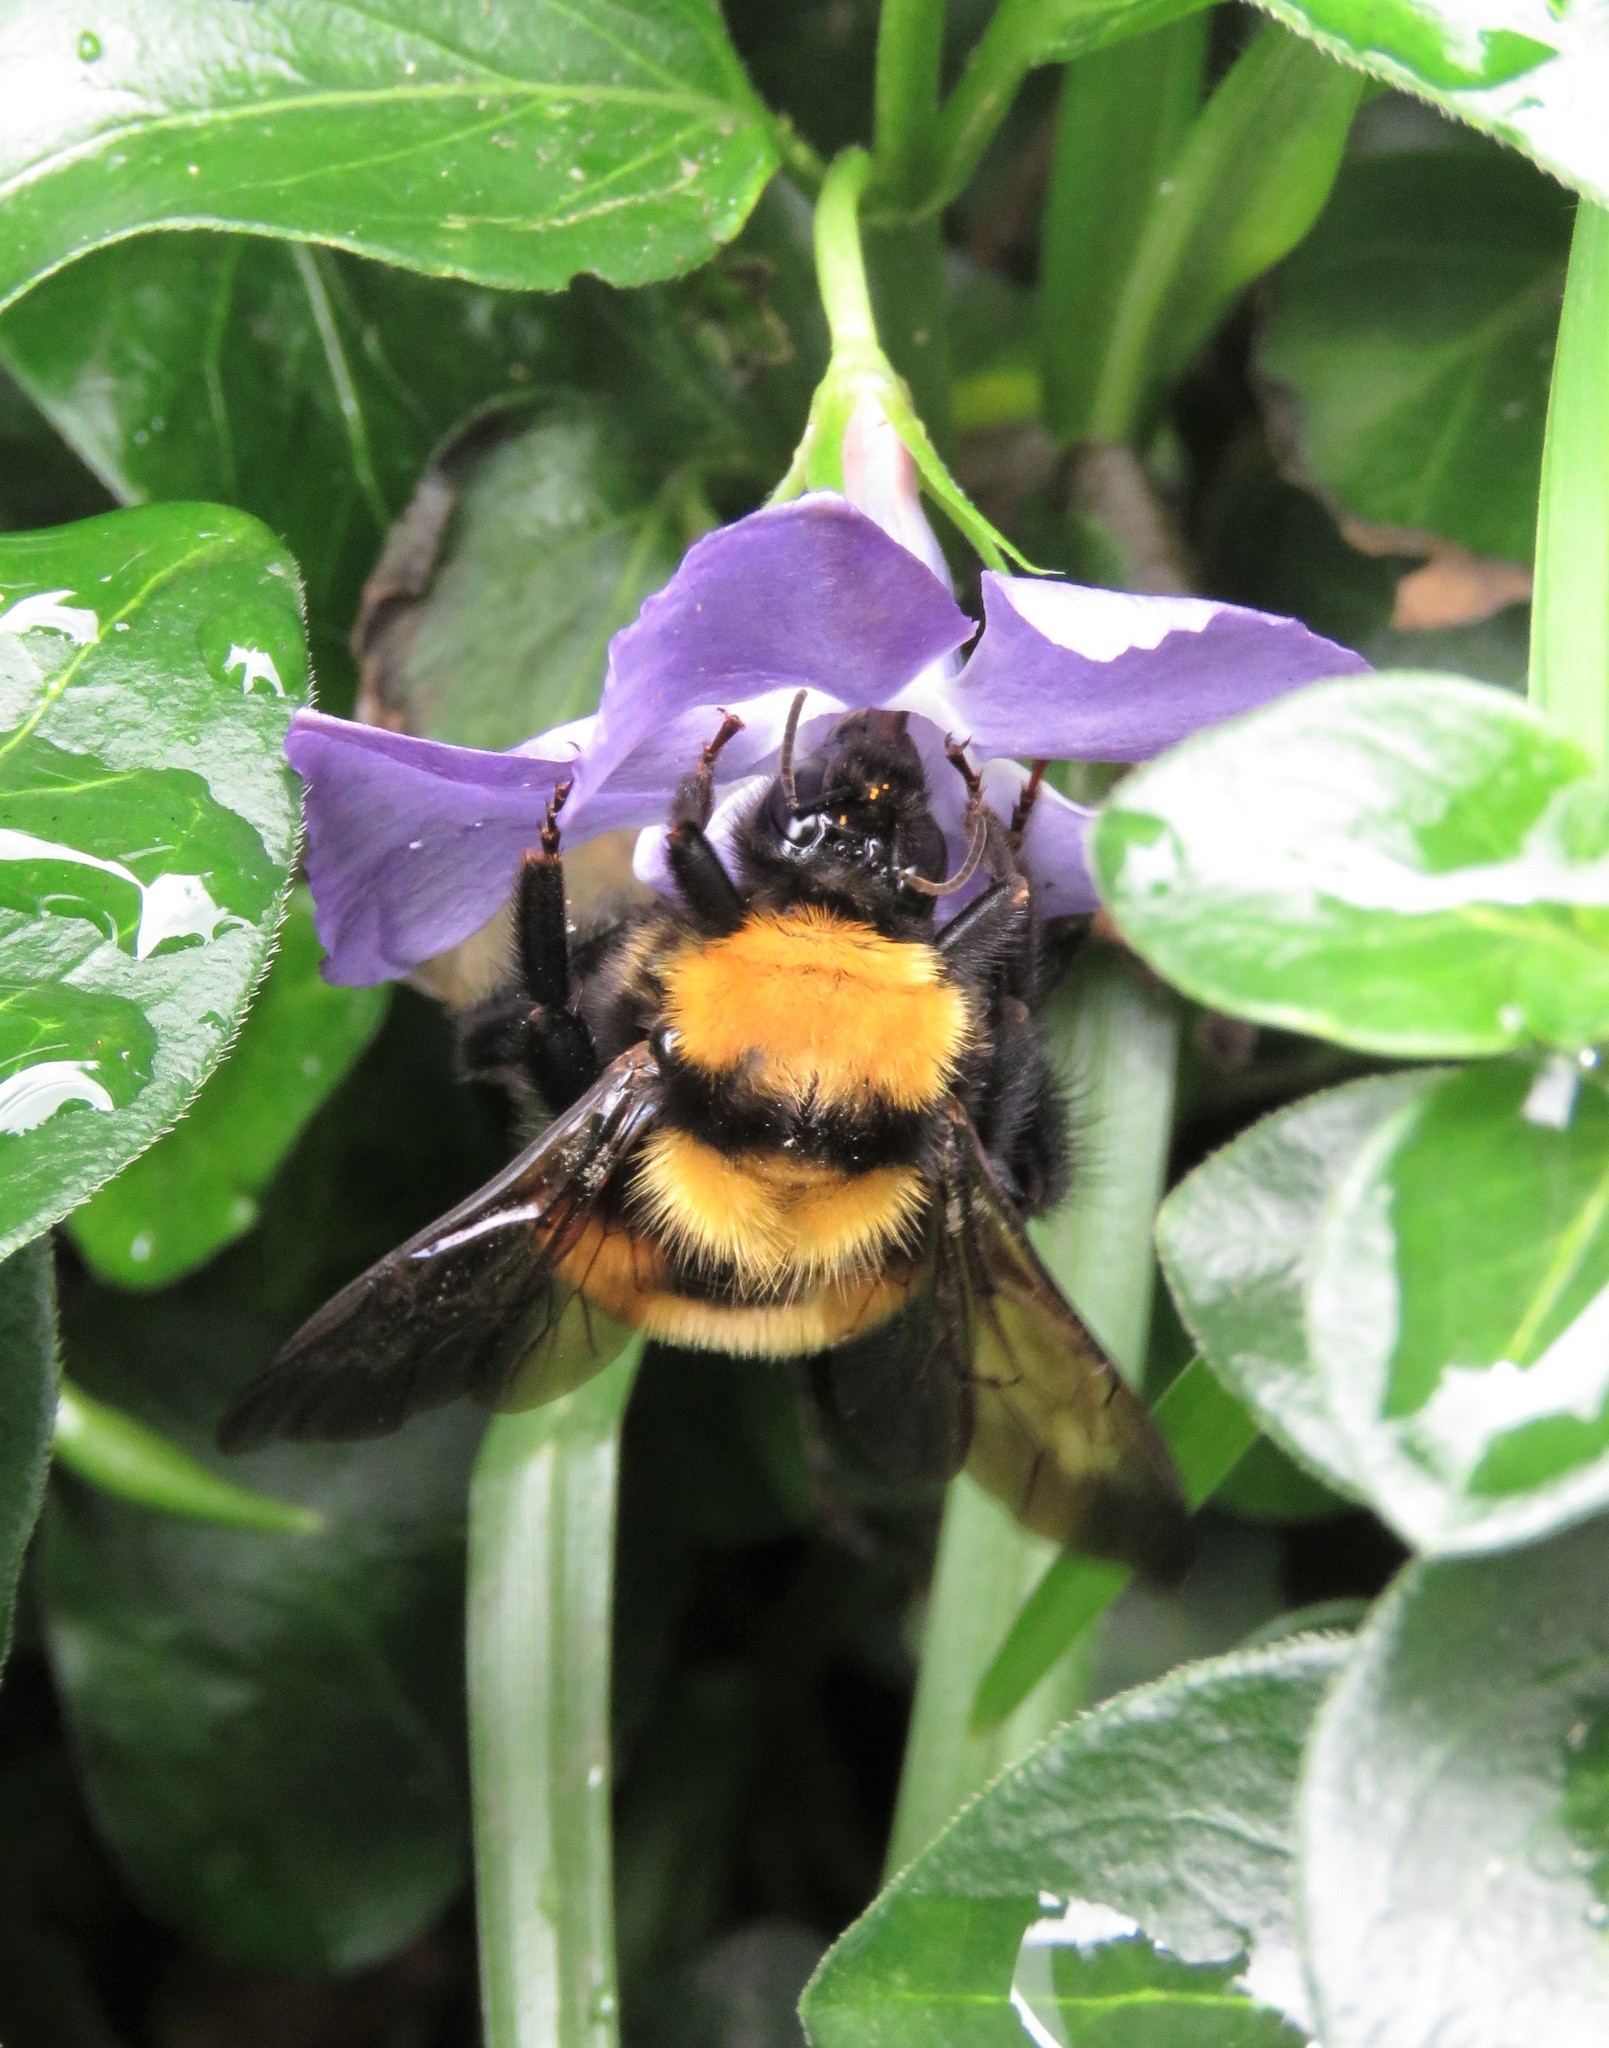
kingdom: Animalia
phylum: Arthropoda
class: Insecta
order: Hymenoptera
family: Apidae
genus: Bombus
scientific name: Bombus hortulanus
